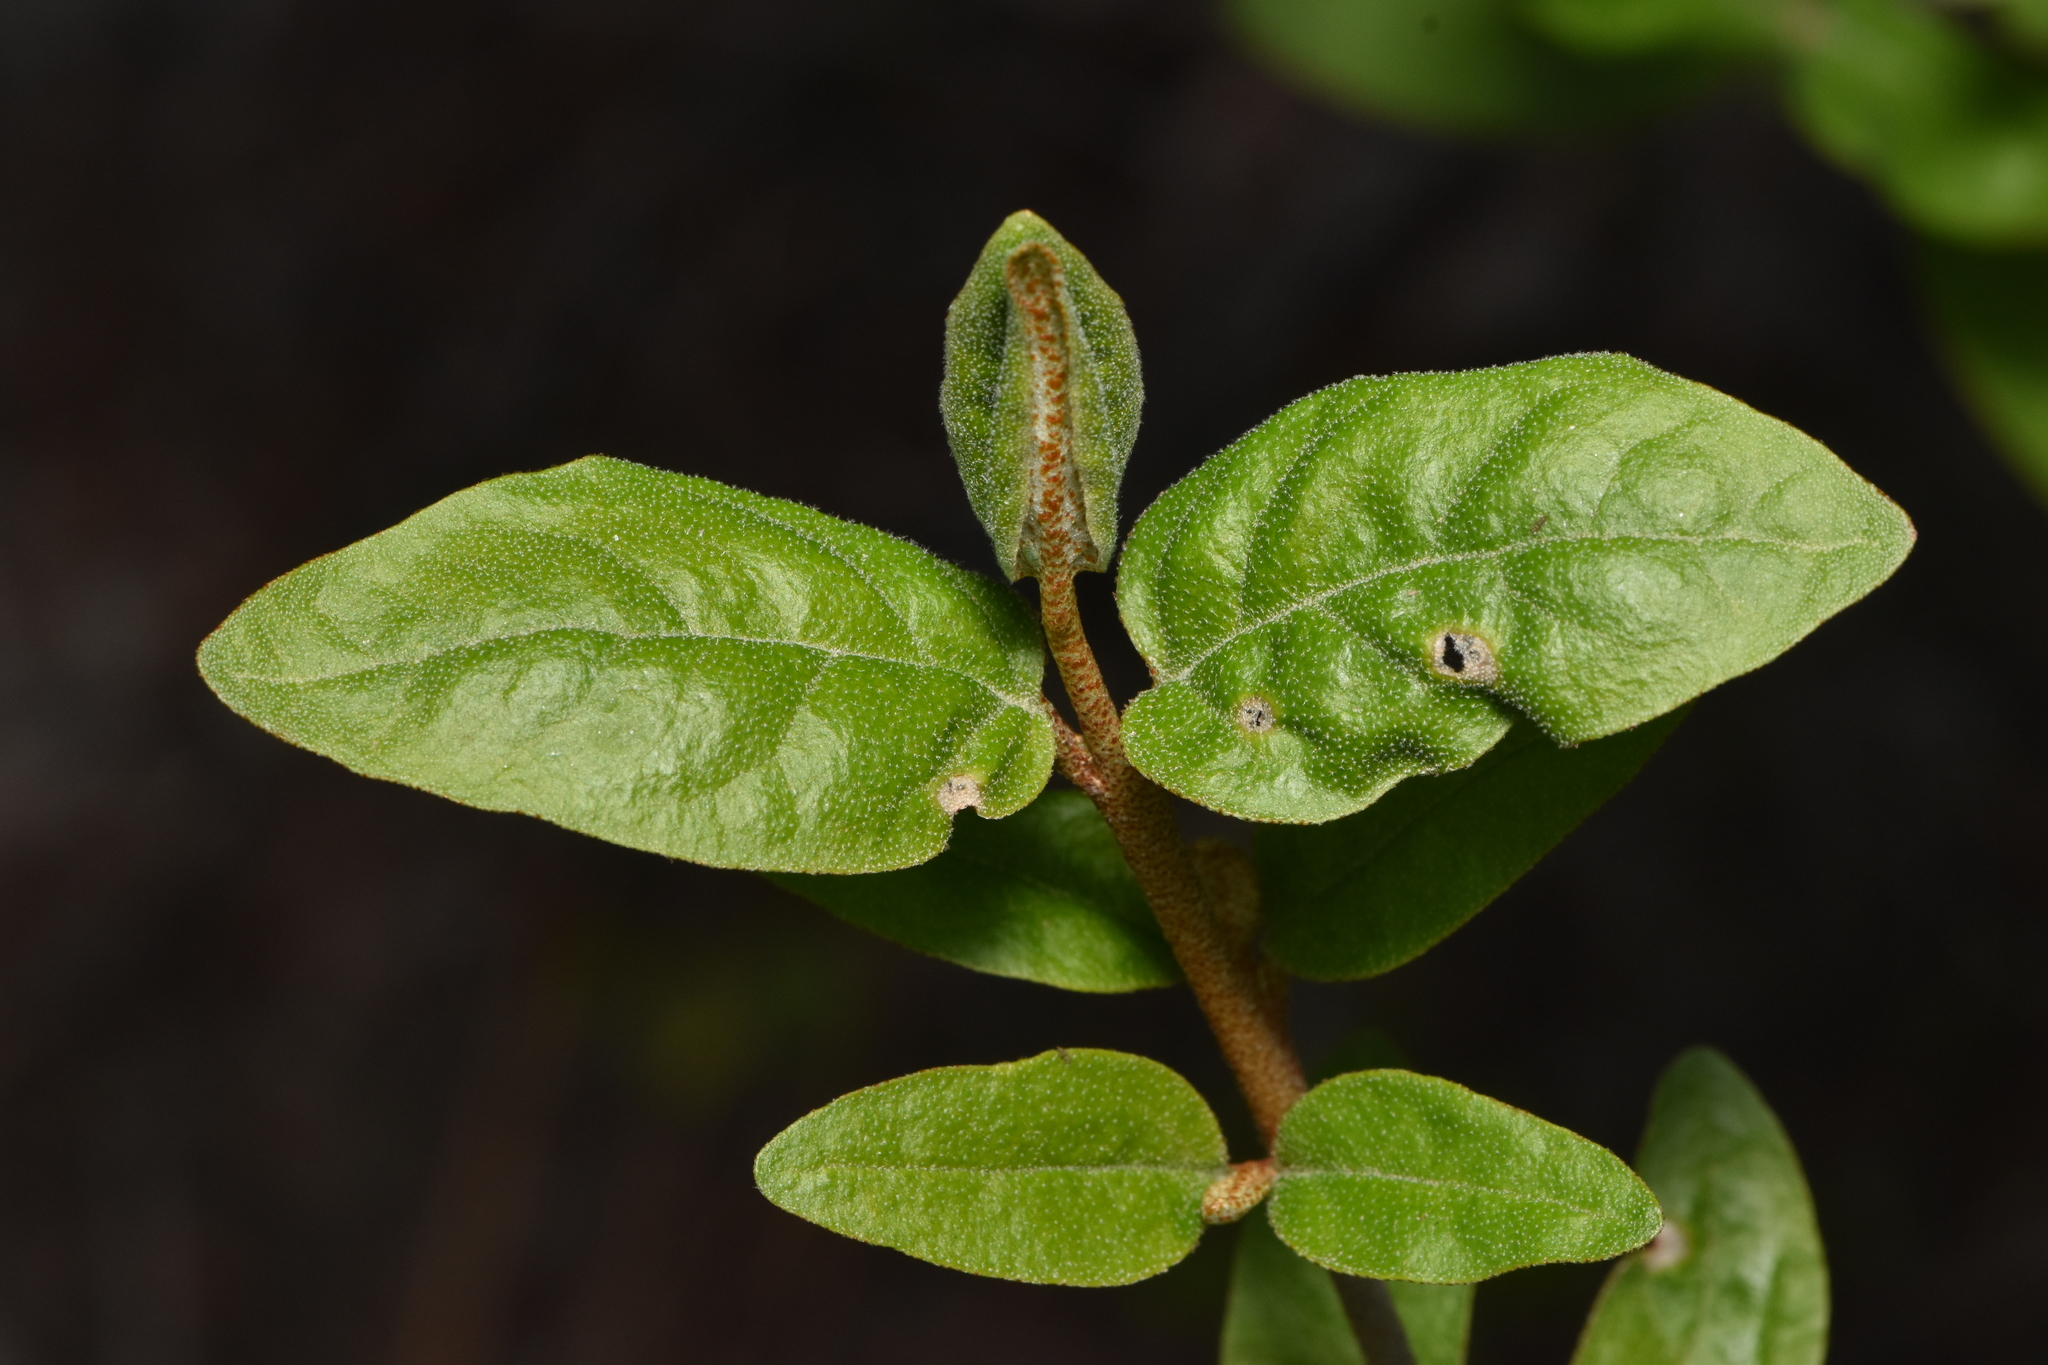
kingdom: Plantae
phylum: Tracheophyta
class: Magnoliopsida
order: Rosales
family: Elaeagnaceae
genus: Shepherdia
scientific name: Shepherdia canadensis
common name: Soapberry
